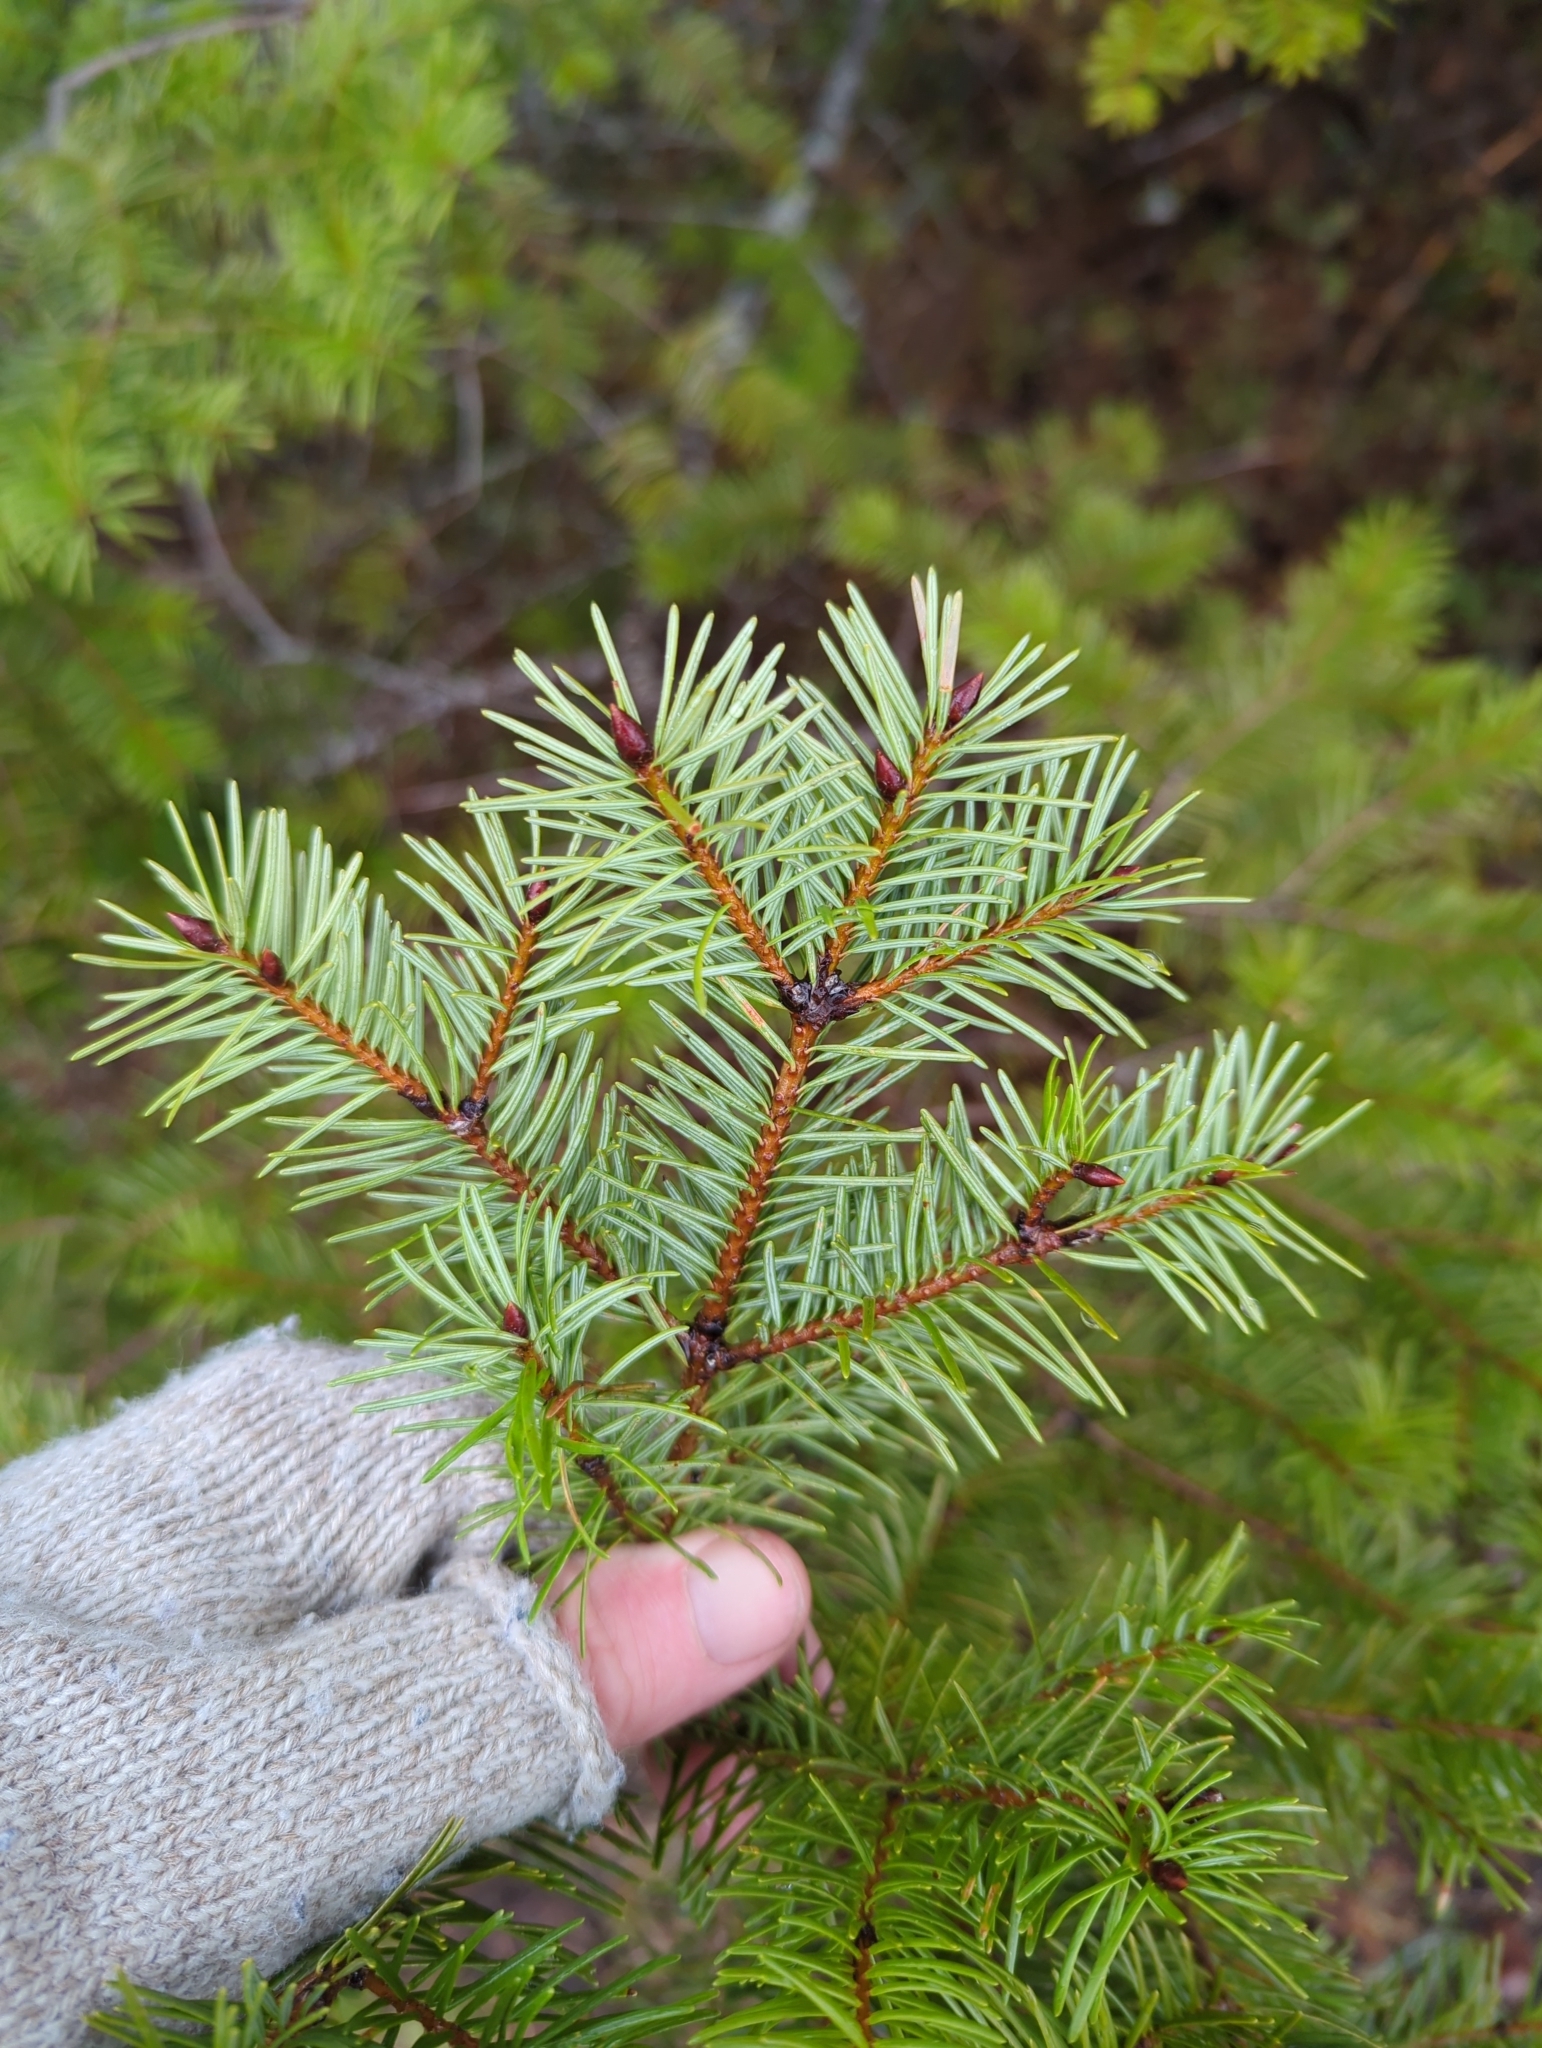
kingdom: Plantae
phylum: Tracheophyta
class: Pinopsida
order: Pinales
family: Pinaceae
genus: Pseudotsuga
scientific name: Pseudotsuga menziesii
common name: Douglas fir
